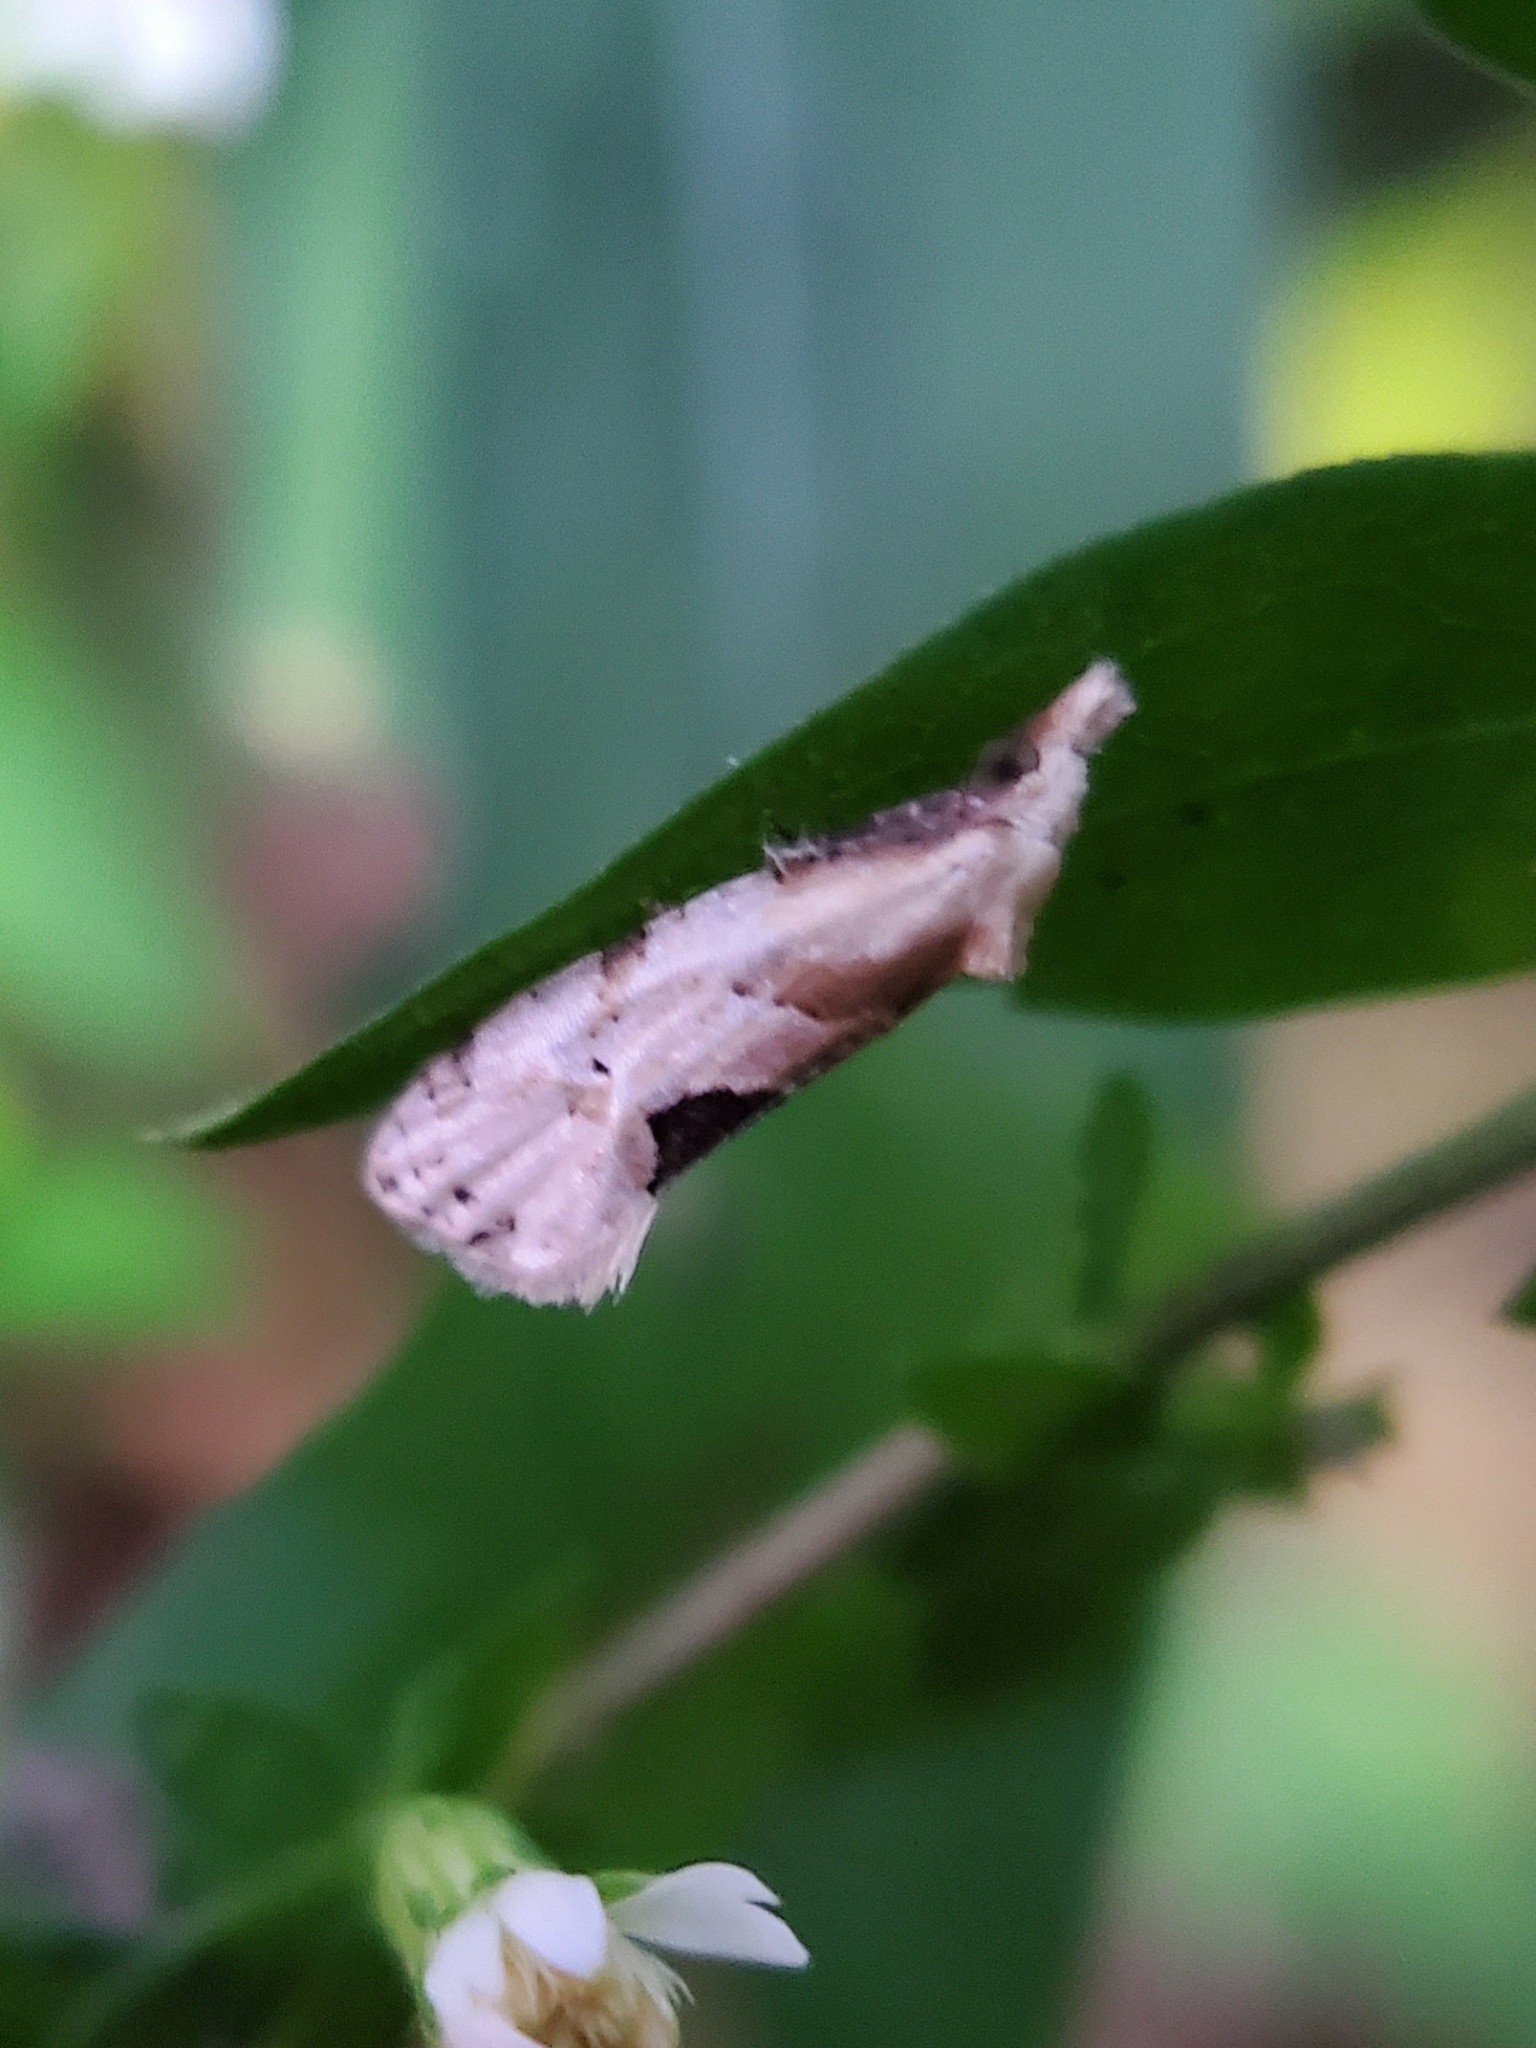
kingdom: Animalia
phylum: Arthropoda
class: Insecta
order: Lepidoptera
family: Tortricidae
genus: Aethes
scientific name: Aethes angustana
